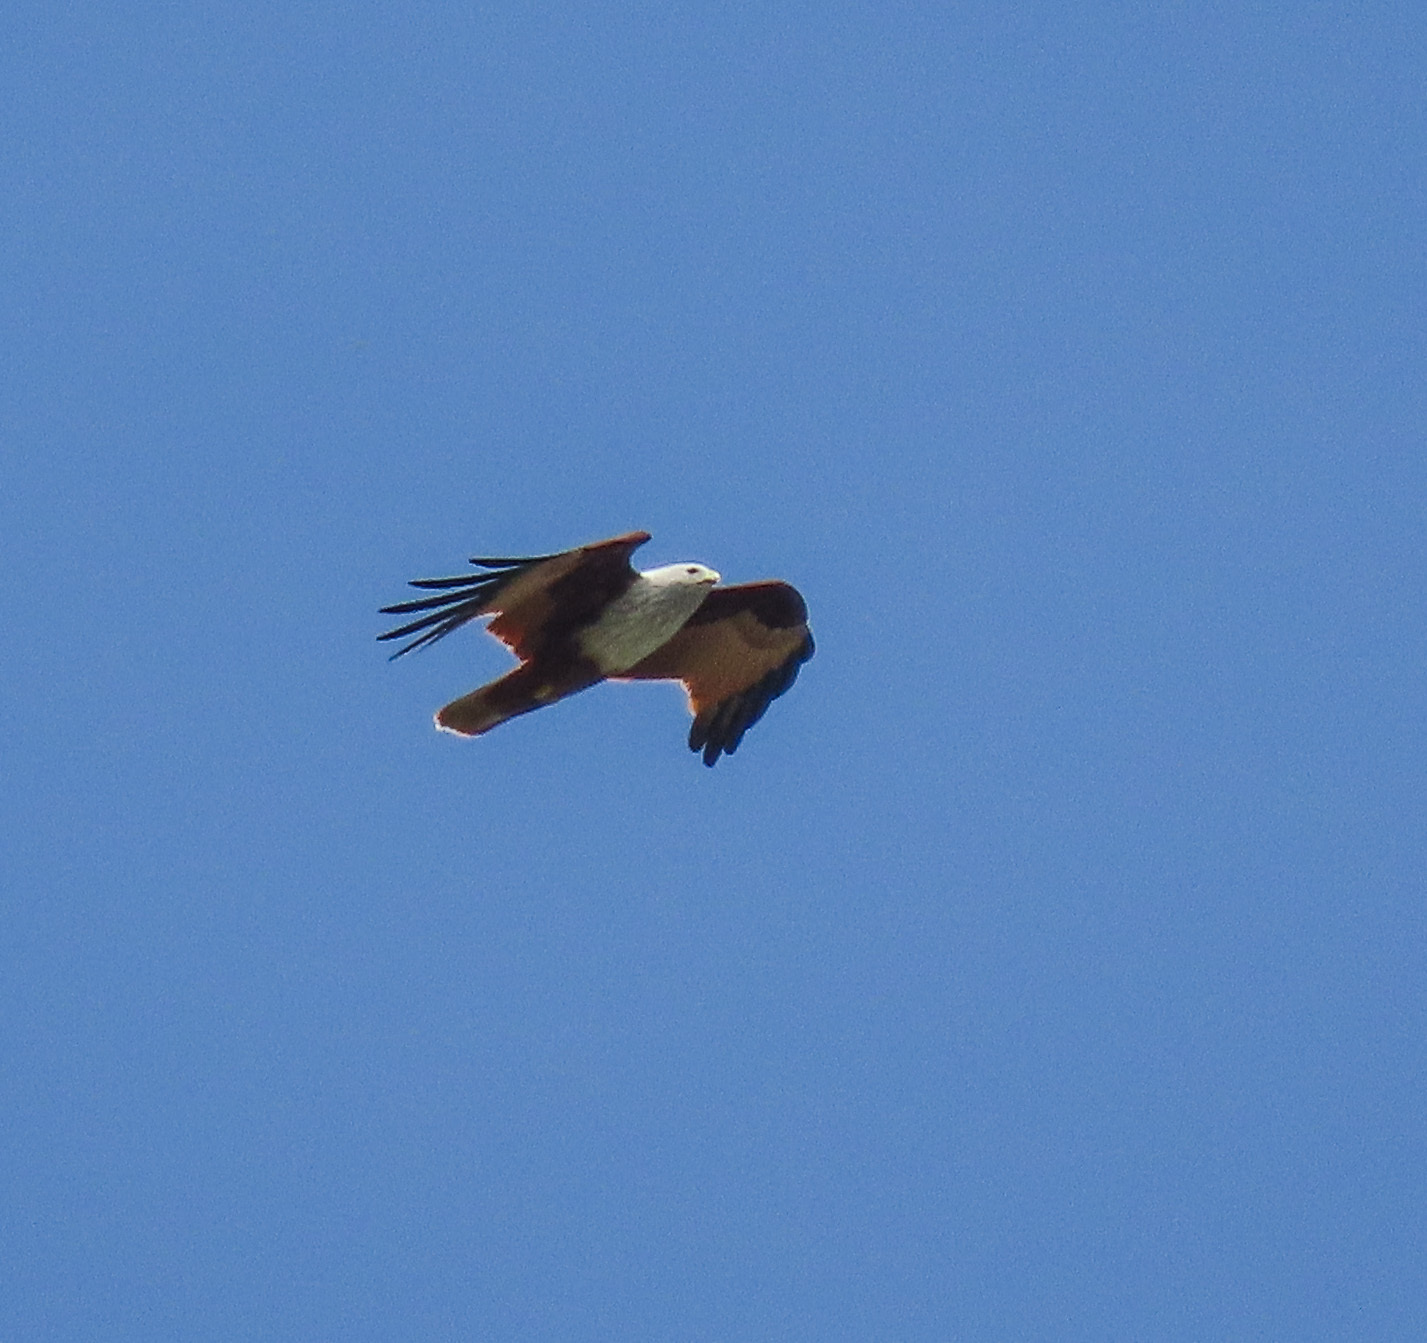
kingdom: Animalia
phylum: Chordata
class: Aves
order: Accipitriformes
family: Accipitridae
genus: Haliastur
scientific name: Haliastur indus
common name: Brahminy kite
